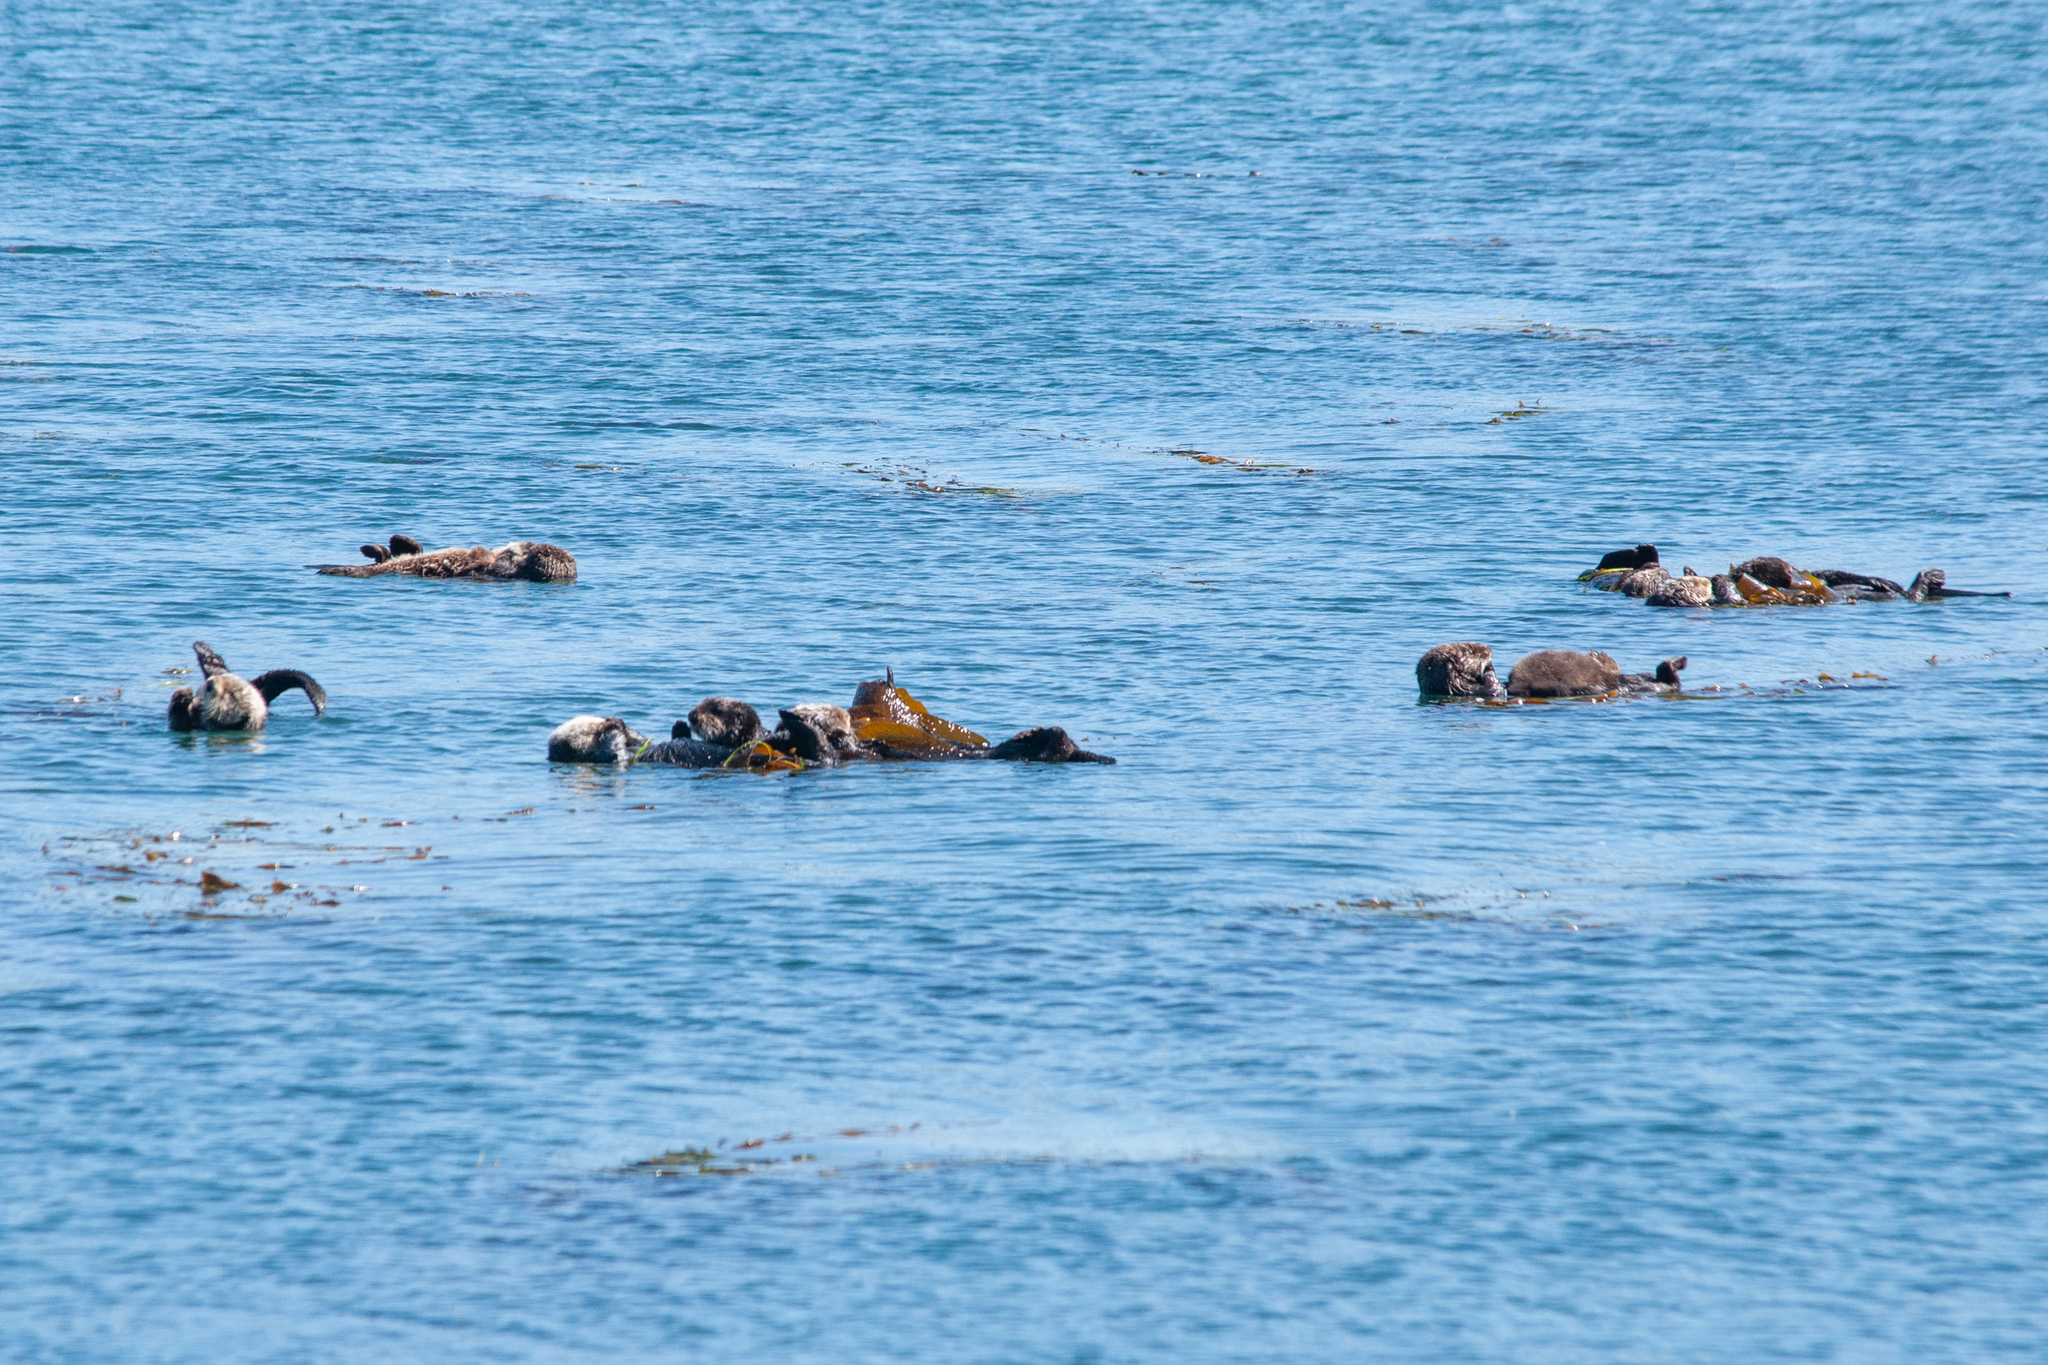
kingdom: Animalia
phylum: Chordata
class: Mammalia
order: Carnivora
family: Mustelidae
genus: Enhydra
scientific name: Enhydra lutris
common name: Sea otter
